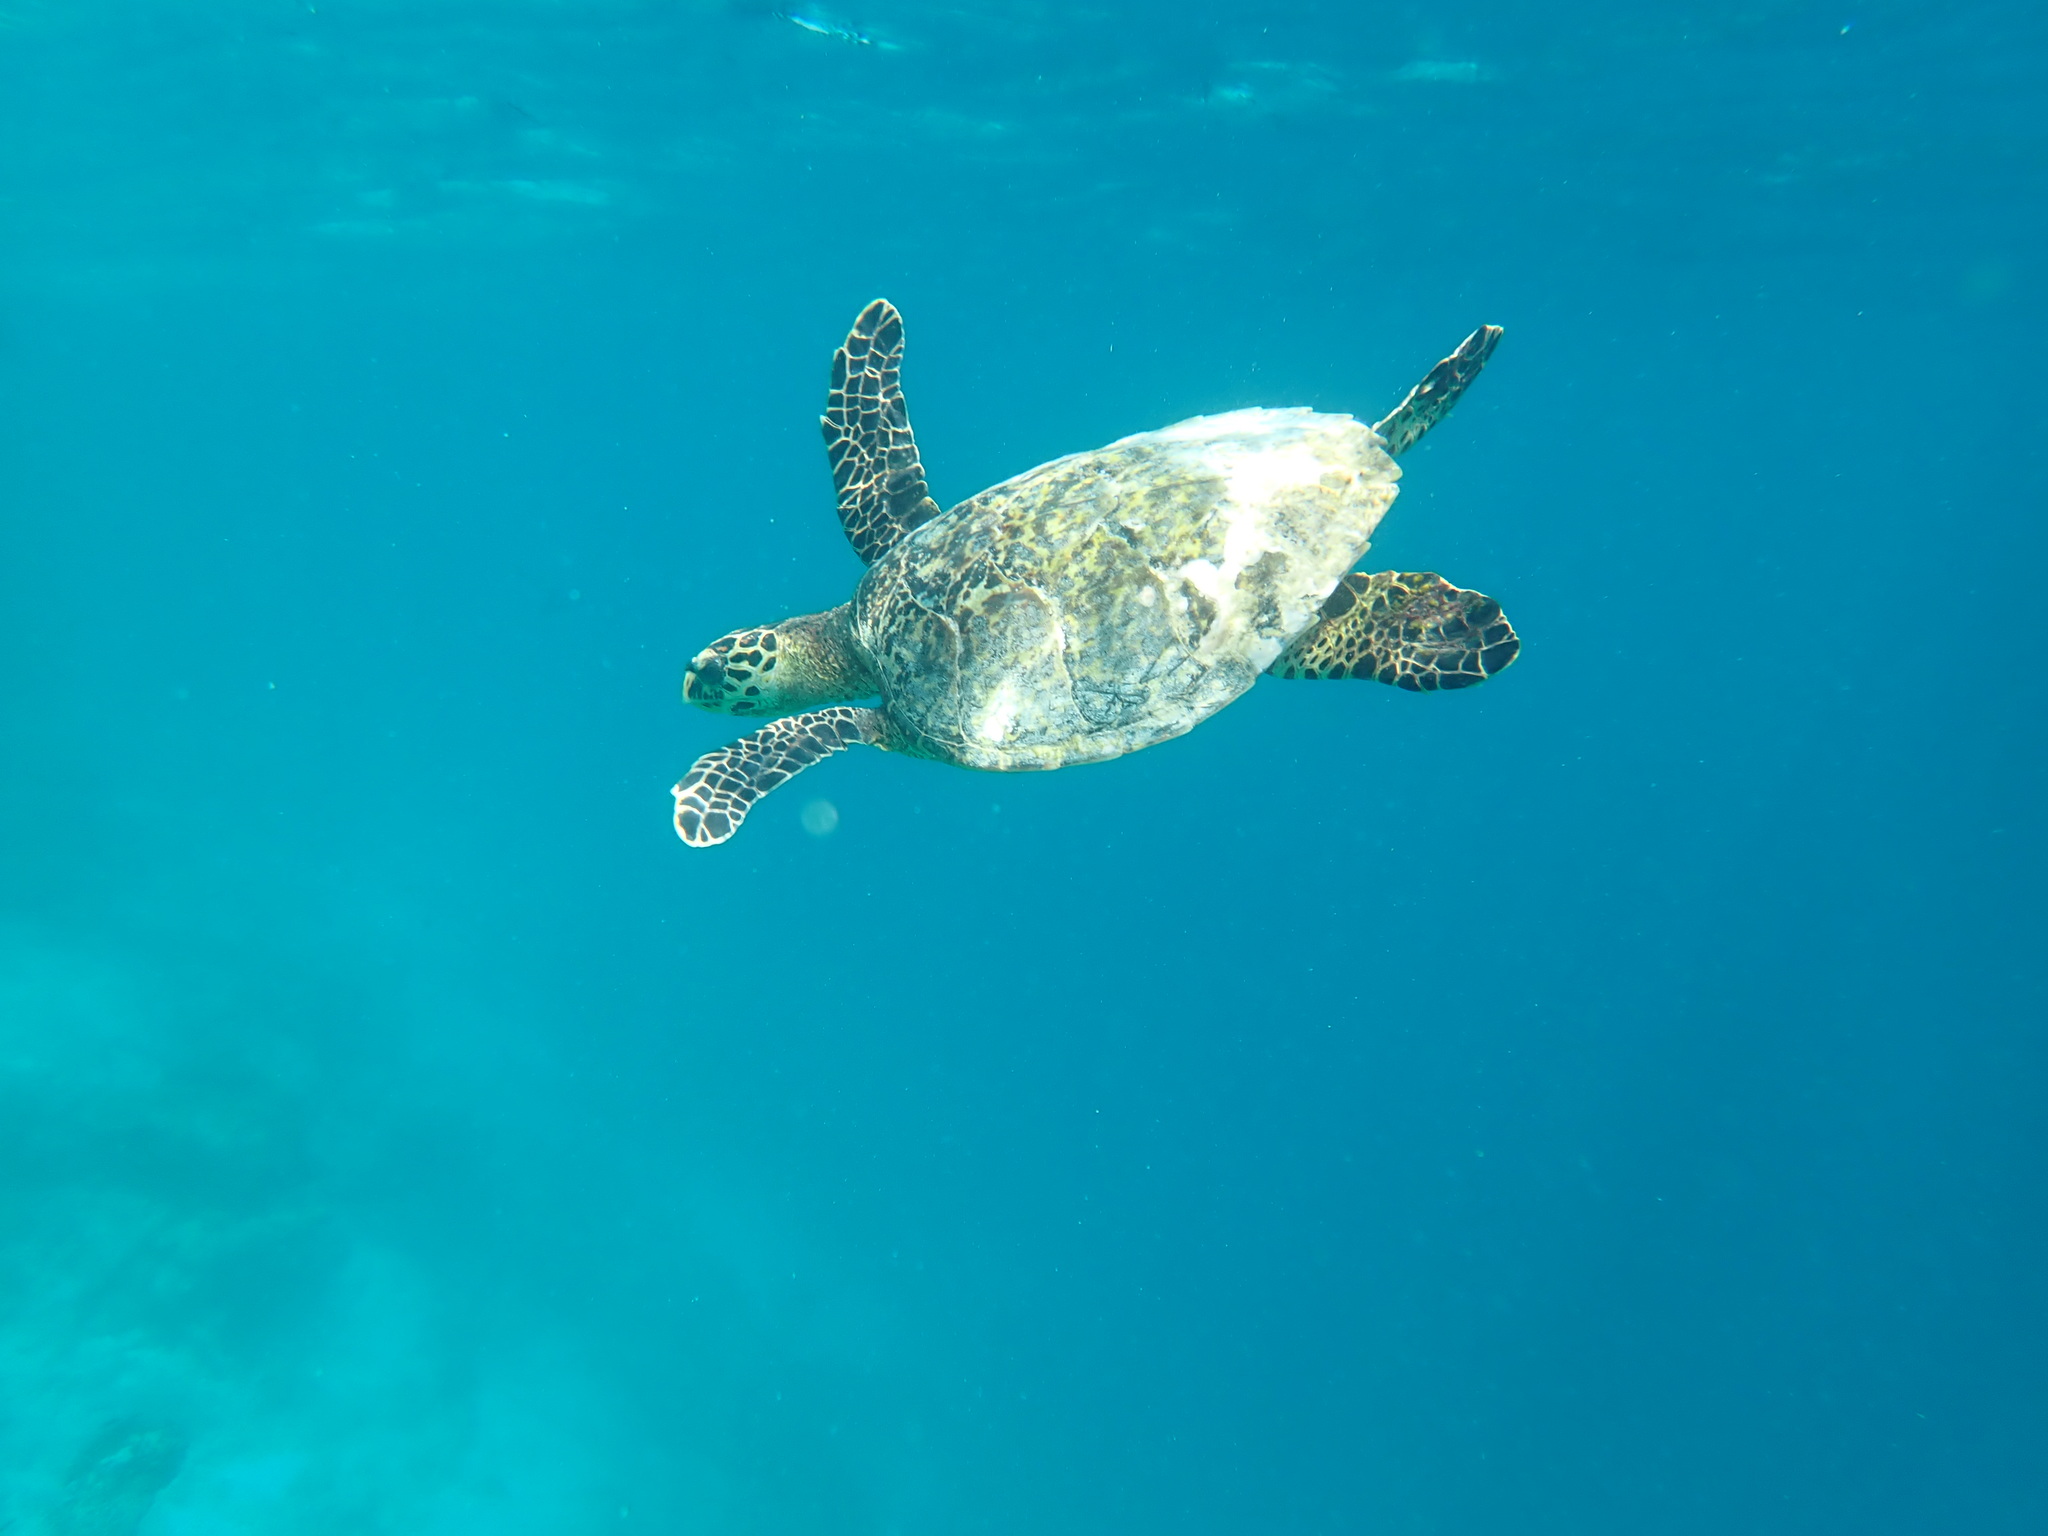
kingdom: Animalia
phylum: Chordata
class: Testudines
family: Cheloniidae
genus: Eretmochelys
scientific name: Eretmochelys imbricata
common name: Hawksbill turtle
